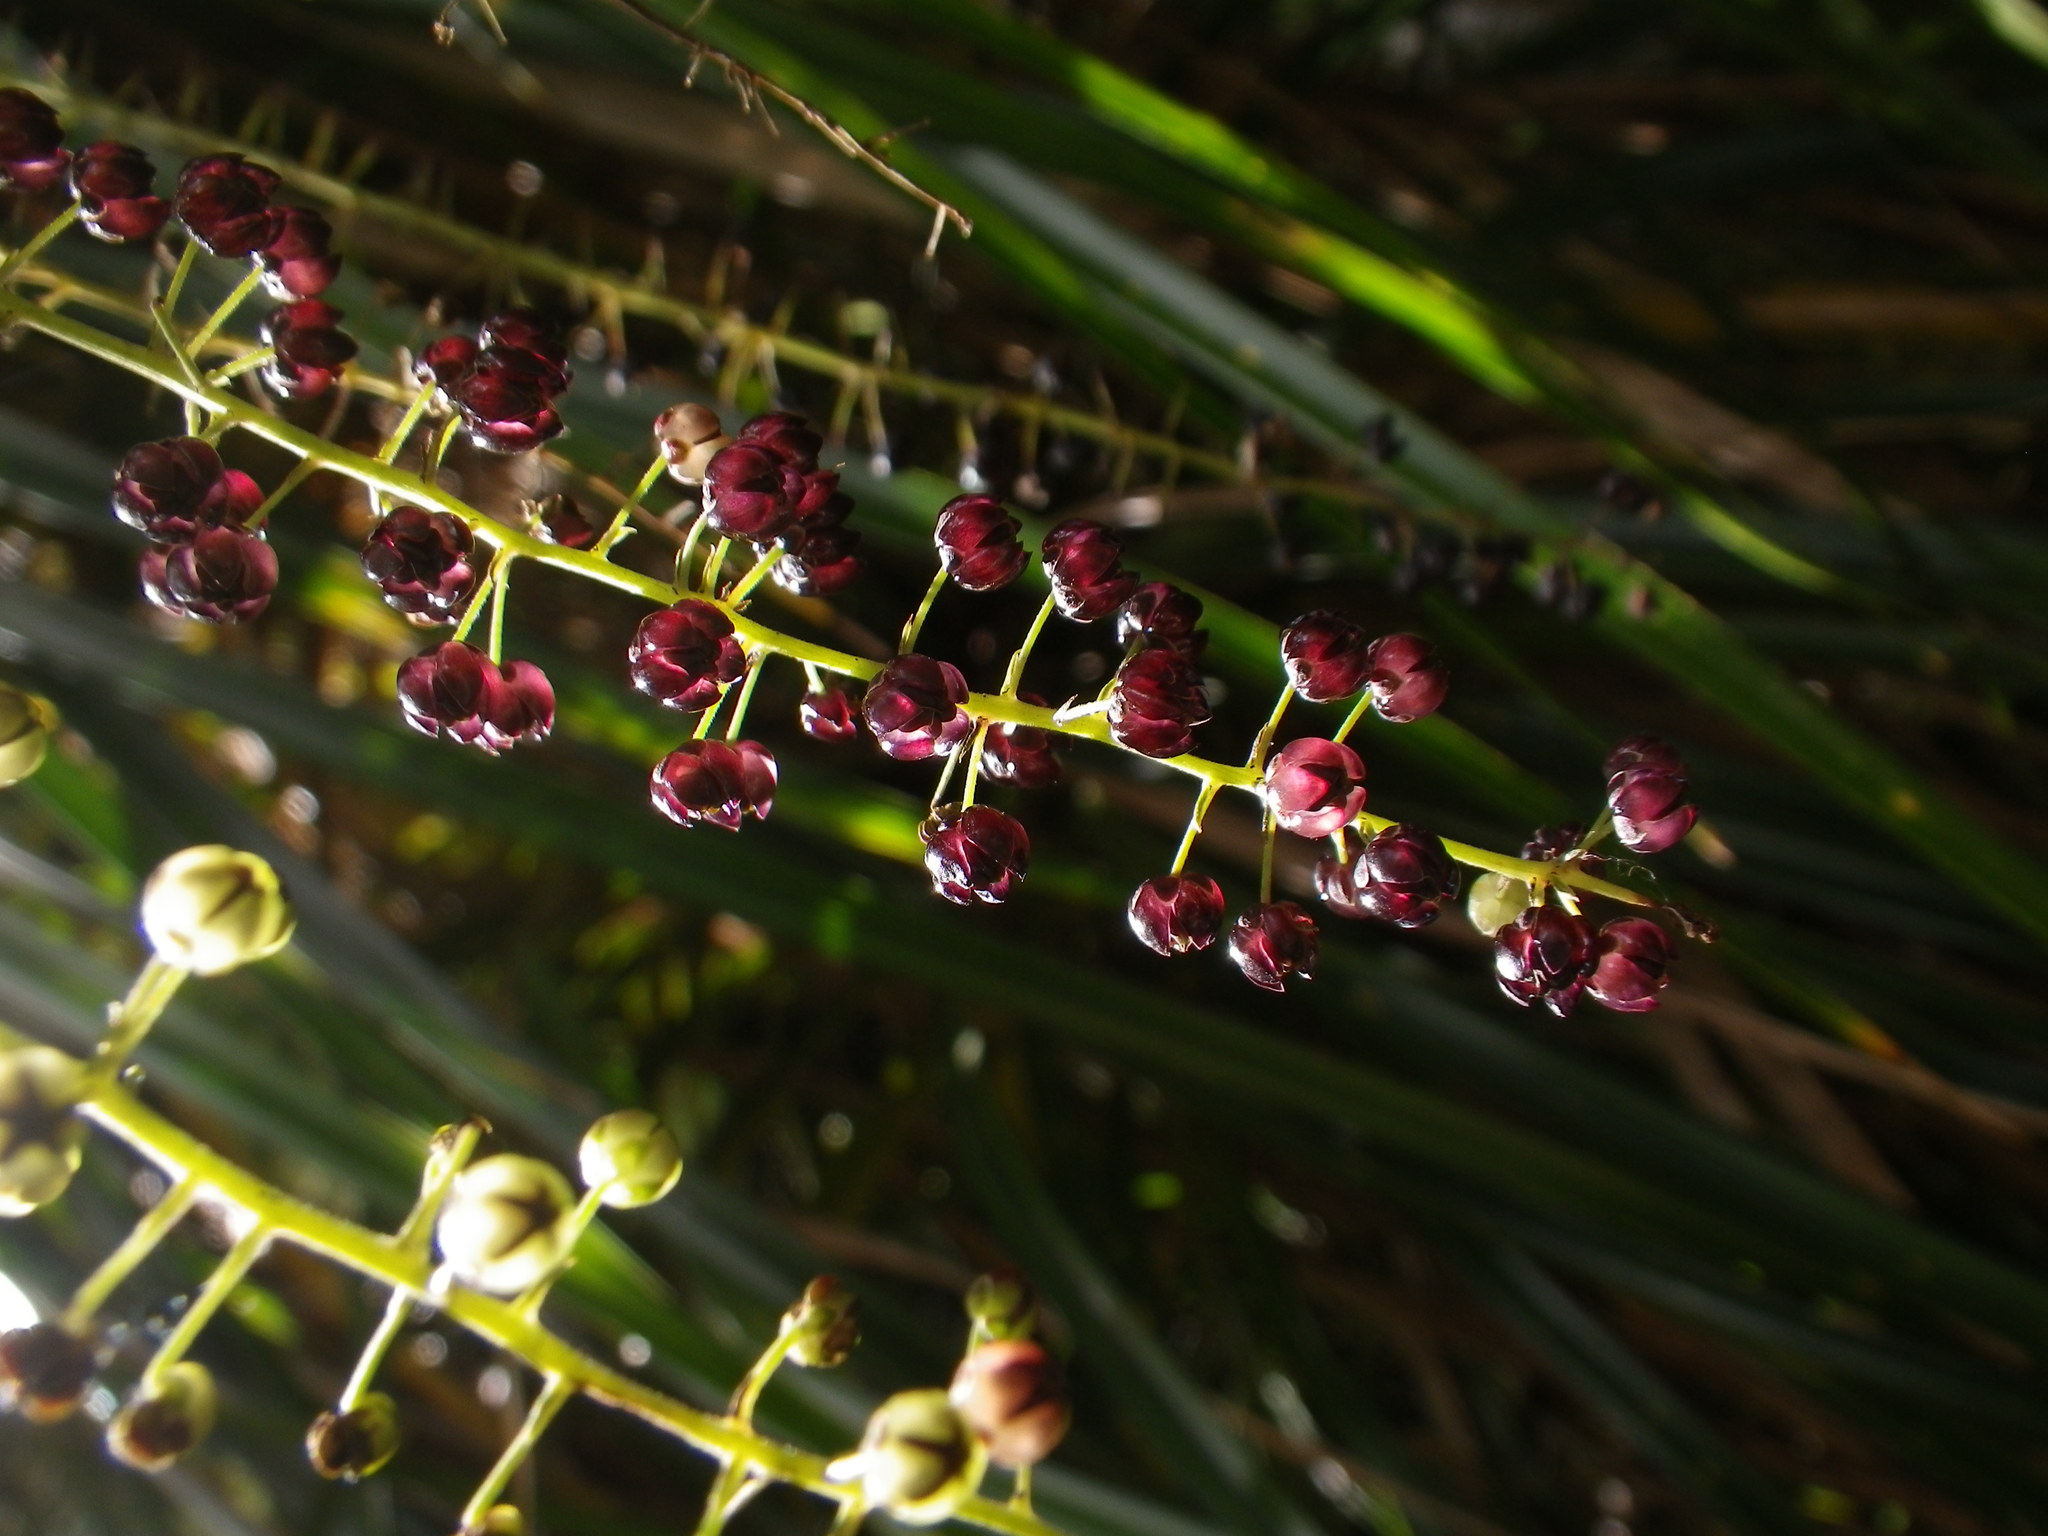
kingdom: Plantae
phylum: Tracheophyta
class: Magnoliopsida
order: Cucurbitales
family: Coriariaceae
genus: Coriaria
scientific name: Coriaria arborea
